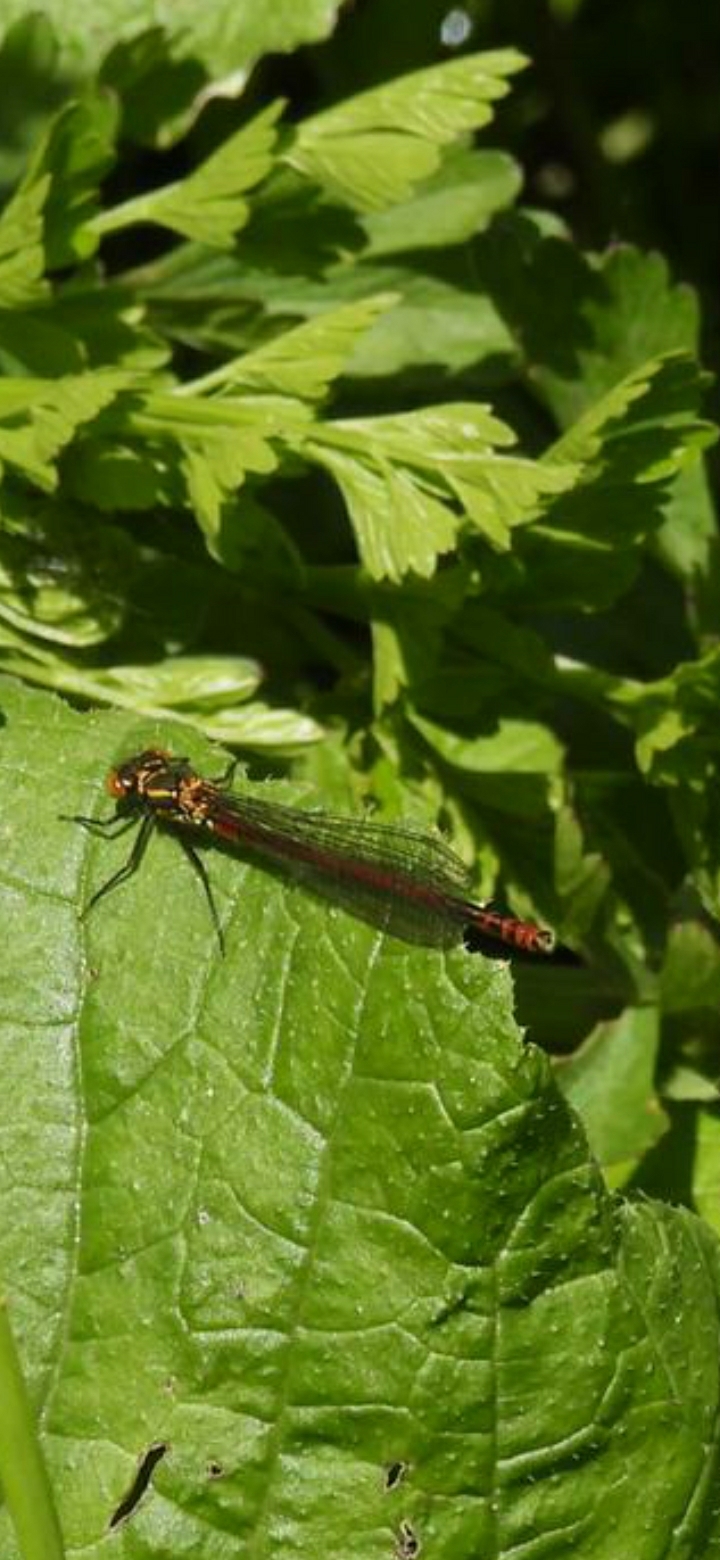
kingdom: Animalia
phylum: Arthropoda
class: Insecta
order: Odonata
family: Coenagrionidae
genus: Pyrrhosoma
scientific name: Pyrrhosoma nymphula
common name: Large red damsel
